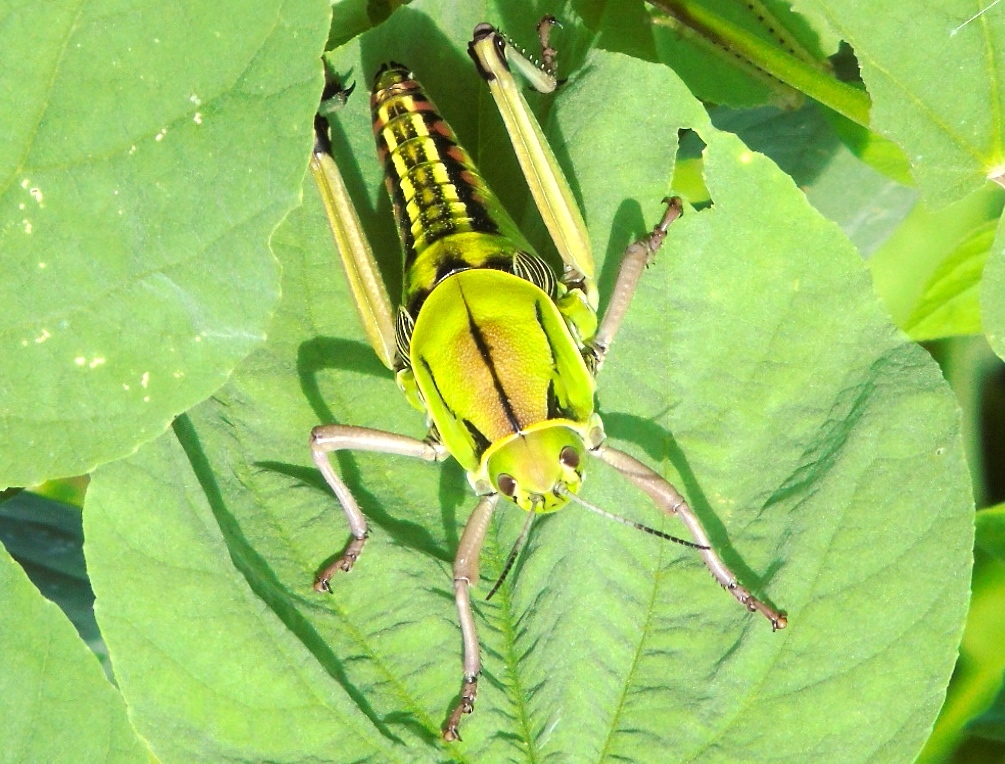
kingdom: Animalia
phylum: Arthropoda
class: Insecta
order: Orthoptera
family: Romaleidae
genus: Brachystola
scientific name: Brachystola
